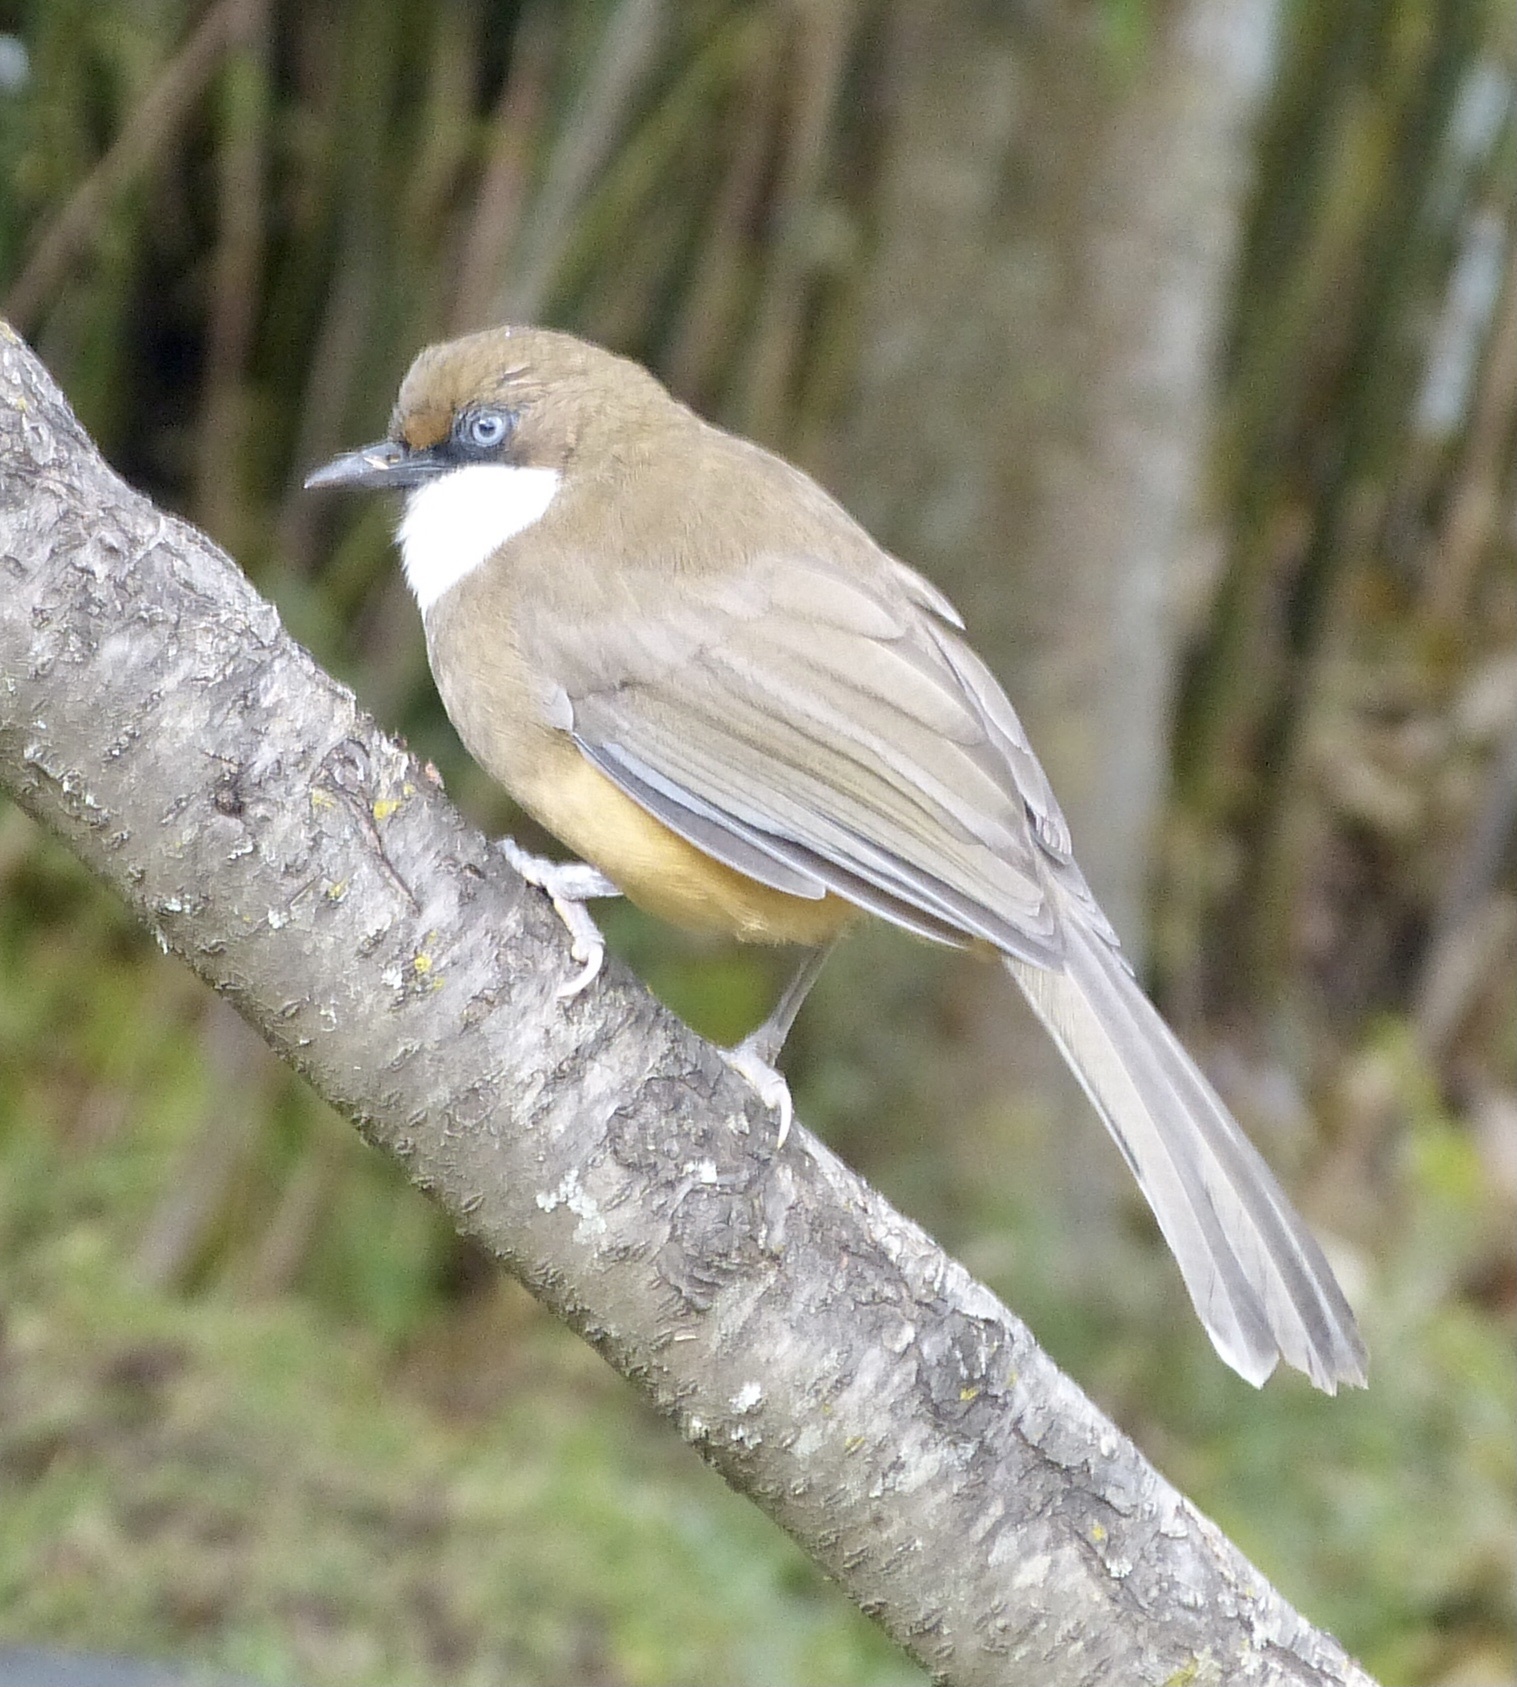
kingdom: Animalia
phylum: Chordata
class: Aves
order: Passeriformes
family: Leiothrichidae
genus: Garrulax
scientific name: Garrulax albogularis
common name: White-throated laughingthrush
